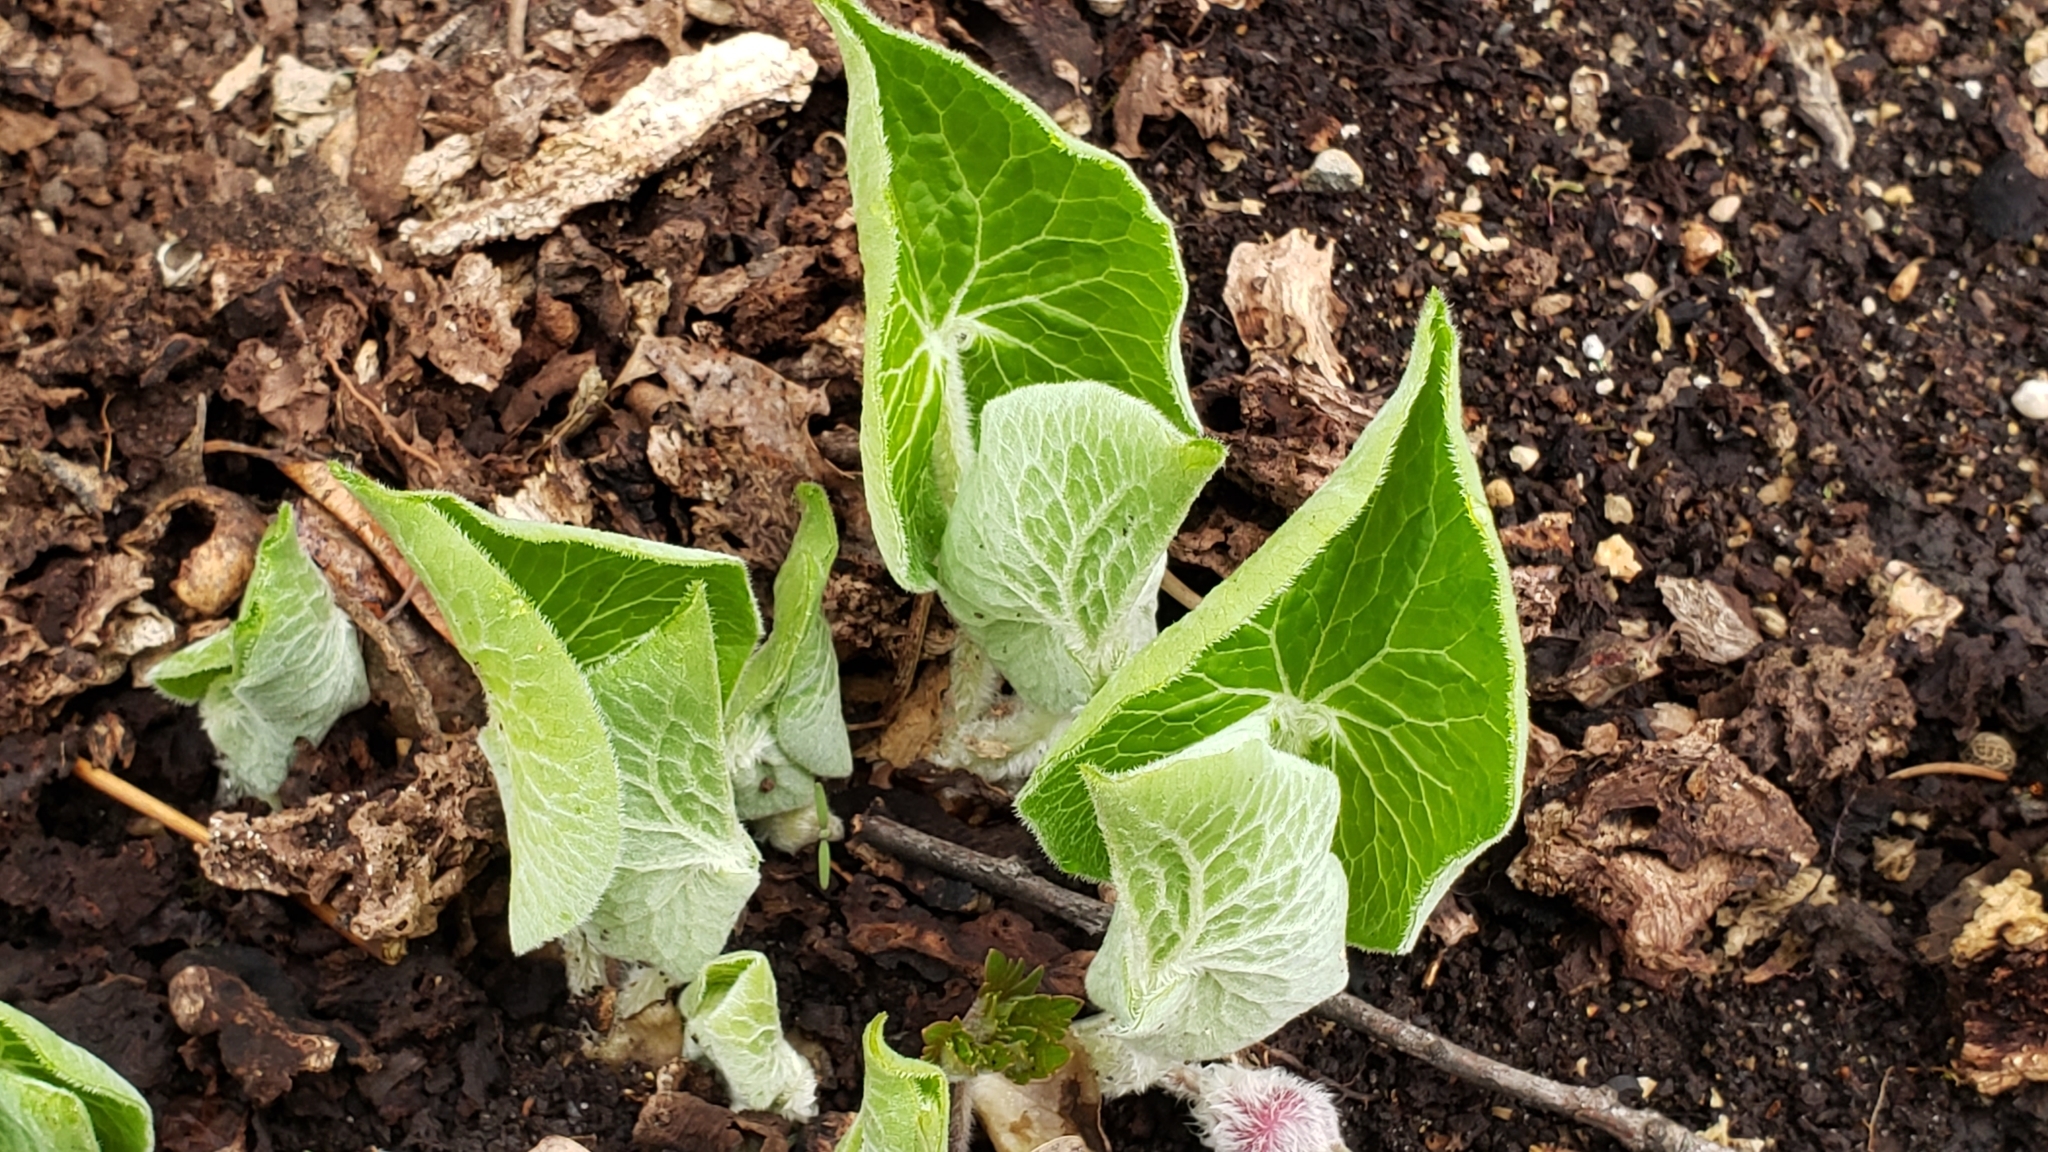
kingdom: Plantae
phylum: Tracheophyta
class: Magnoliopsida
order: Piperales
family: Aristolochiaceae
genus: Asarum
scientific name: Asarum canadense
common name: Wild ginger
